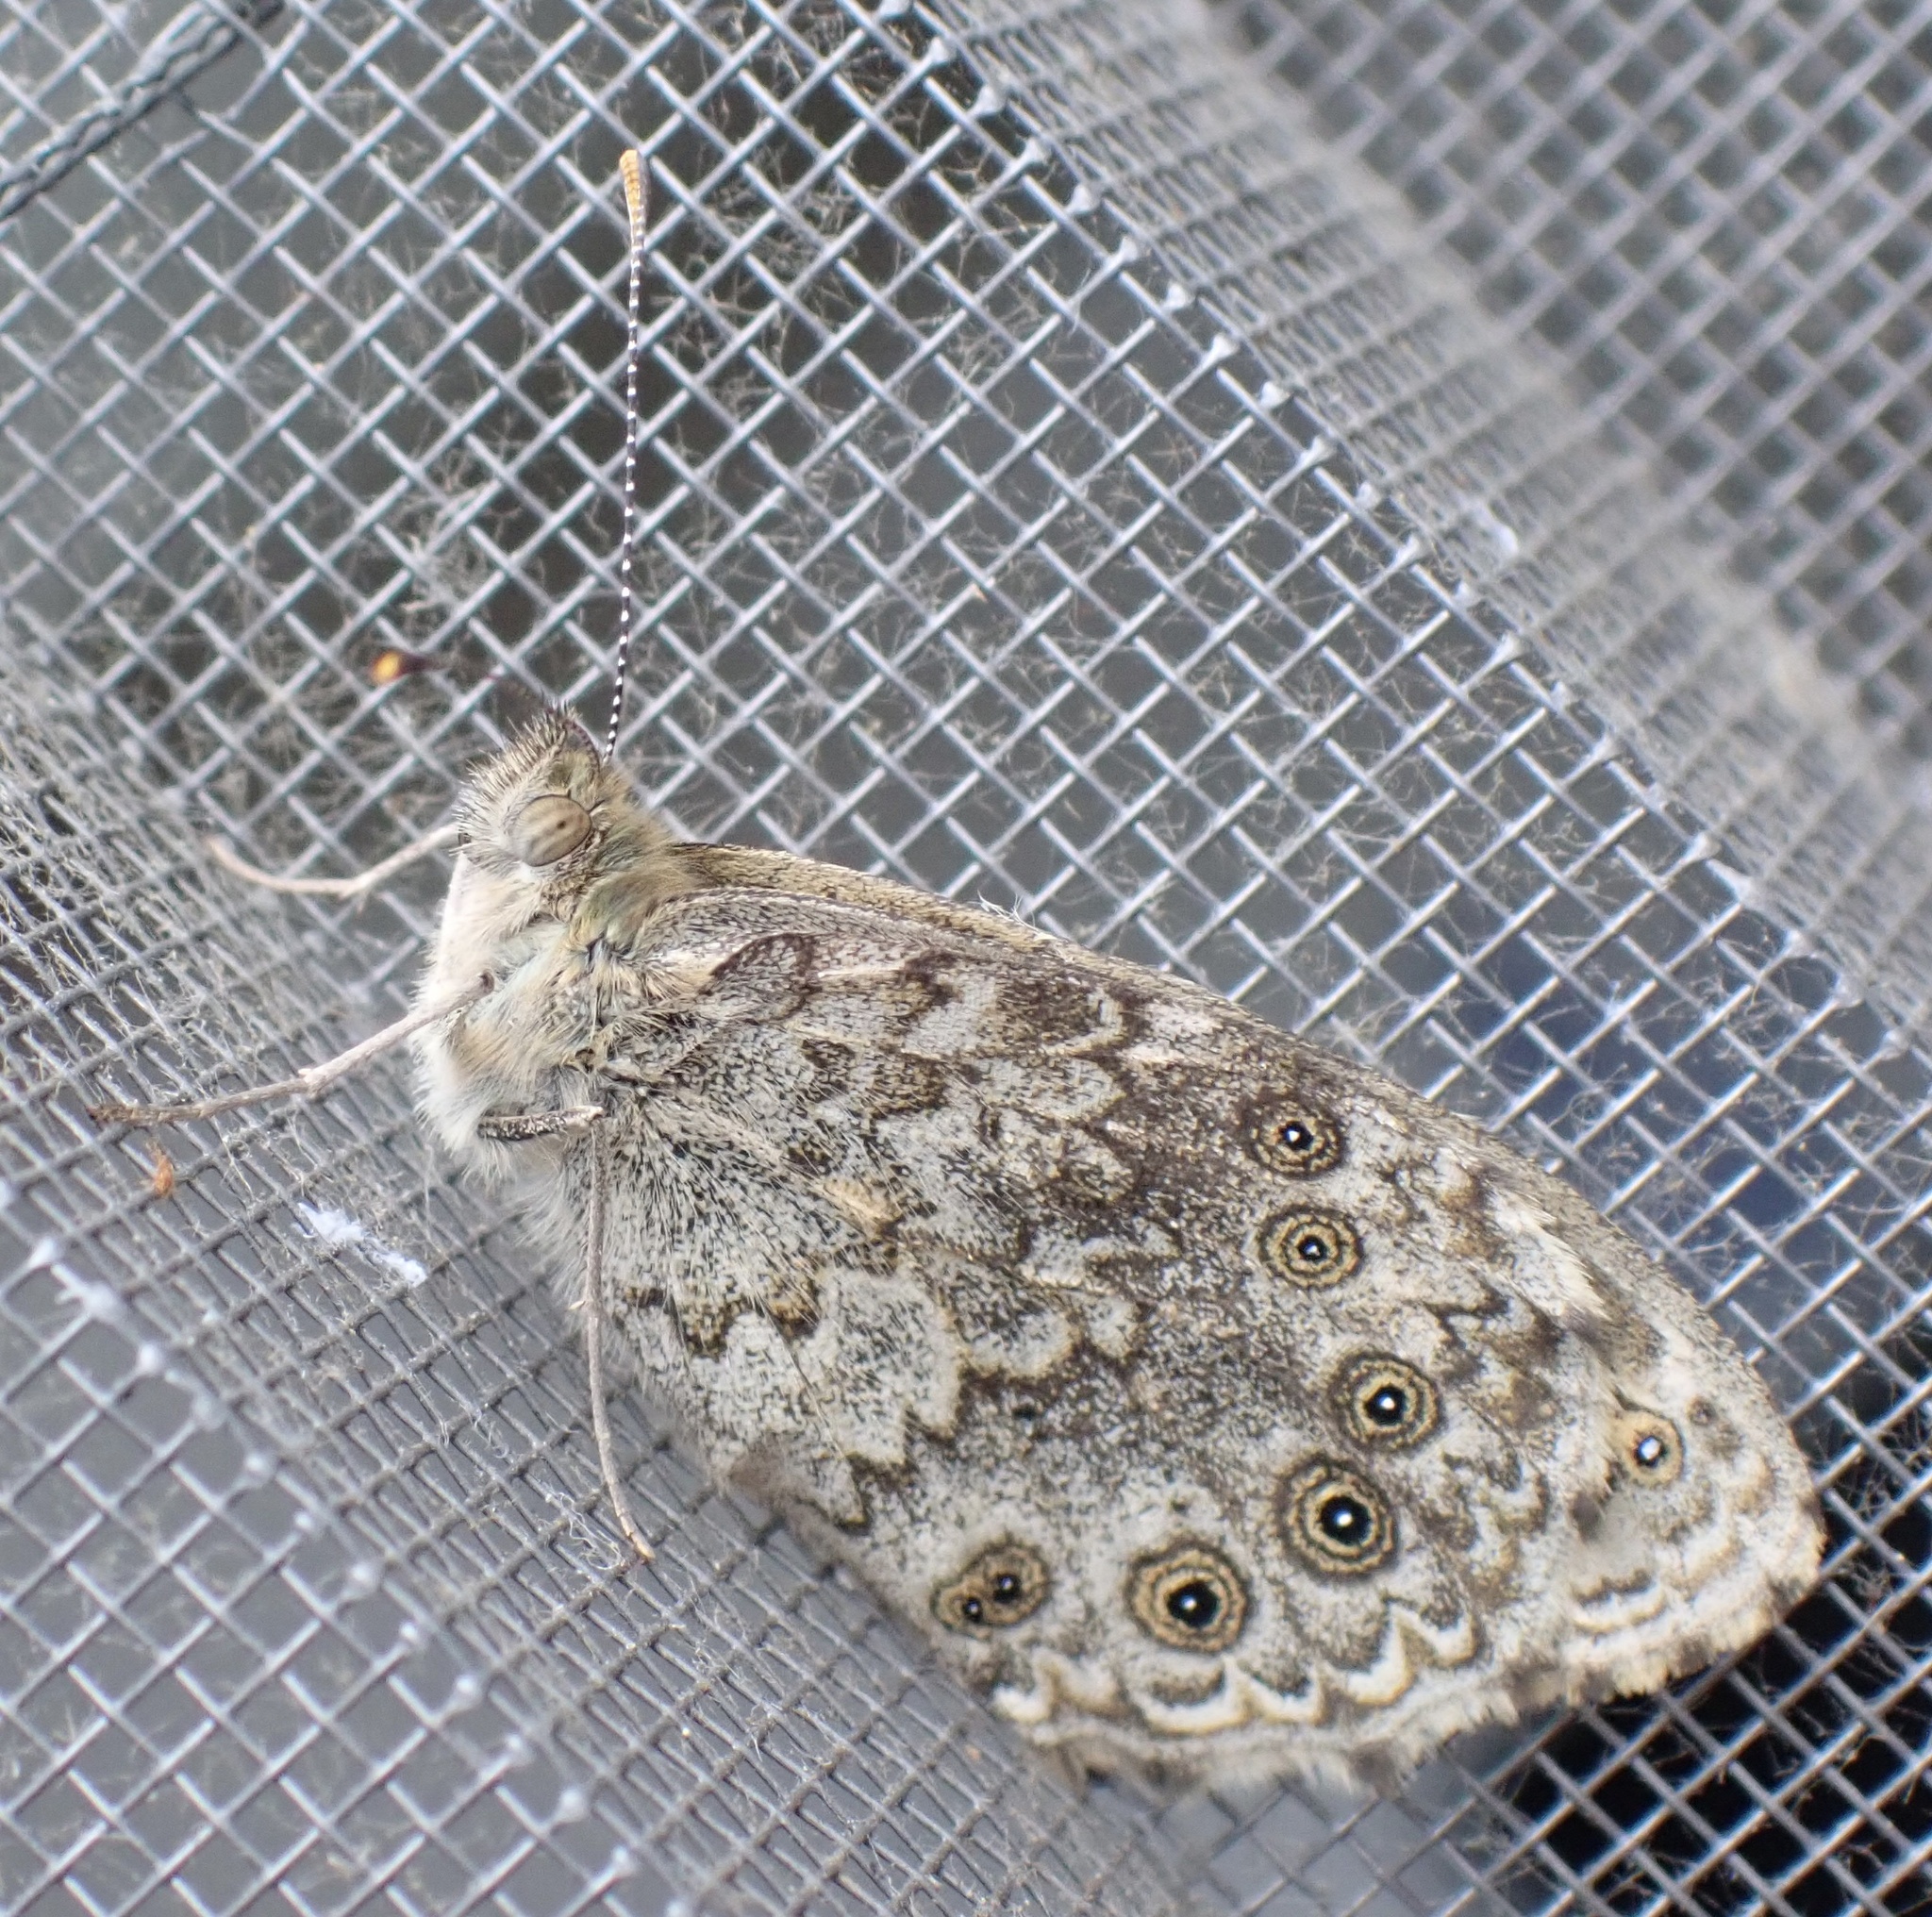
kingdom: Animalia
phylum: Arthropoda
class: Insecta
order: Lepidoptera
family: Nymphalidae
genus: Pararge
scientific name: Pararge Lasiommata megera
